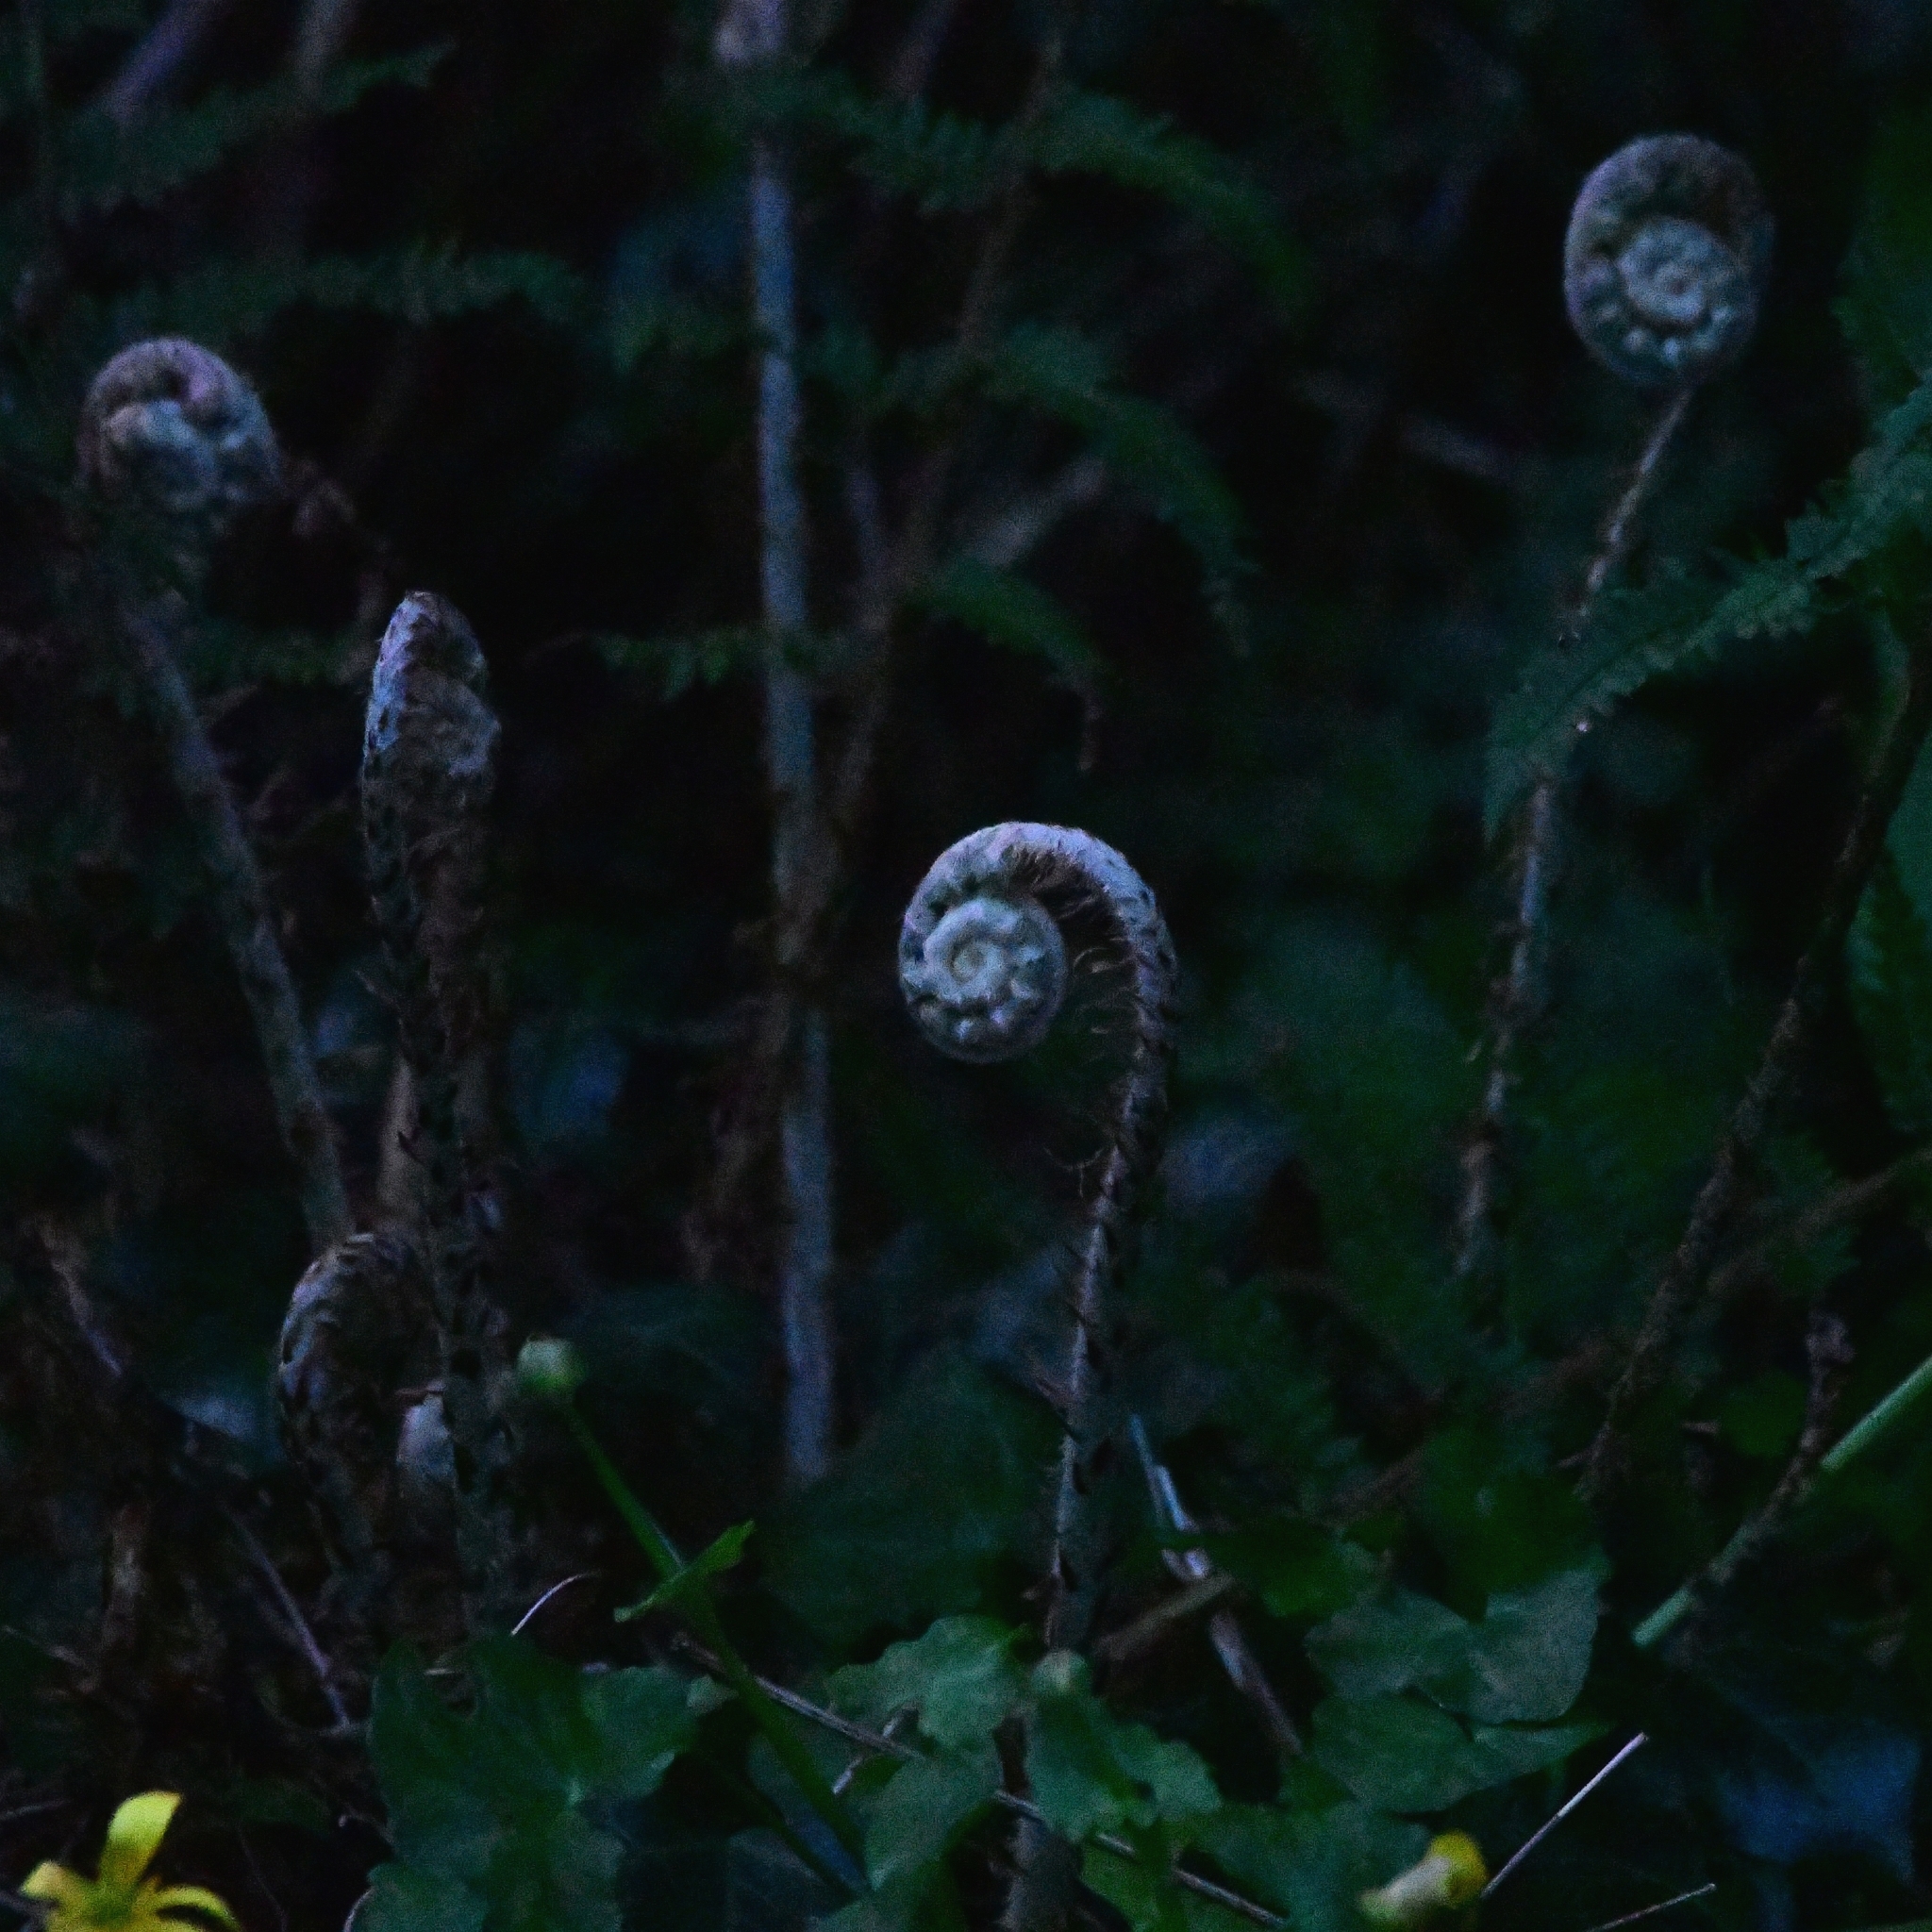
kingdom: Plantae
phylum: Tracheophyta
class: Polypodiopsida
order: Polypodiales
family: Dryopteridaceae
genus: Polystichum
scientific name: Polystichum setiferum
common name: Soft shield-fern
